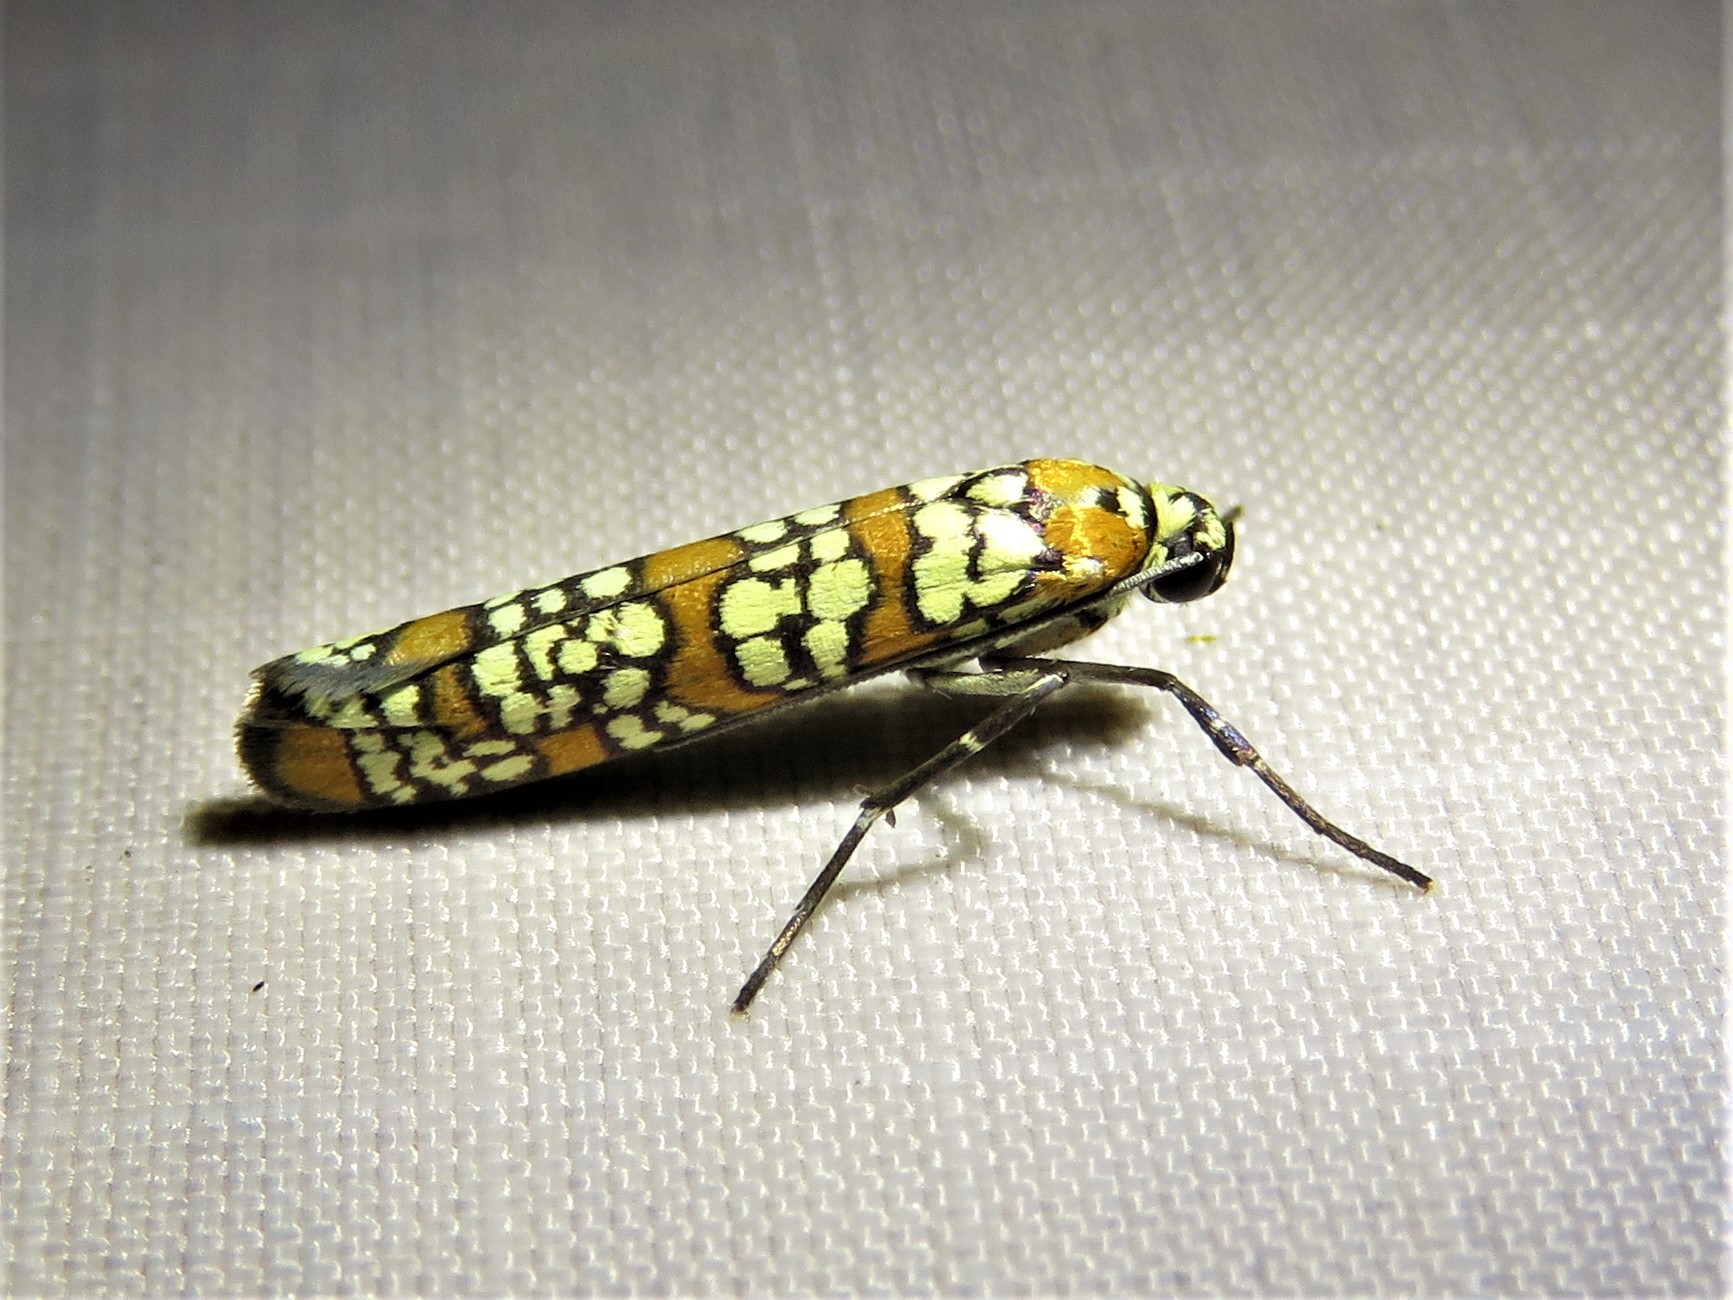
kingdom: Animalia
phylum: Arthropoda
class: Insecta
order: Lepidoptera
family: Attevidae
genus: Atteva
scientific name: Atteva punctella
